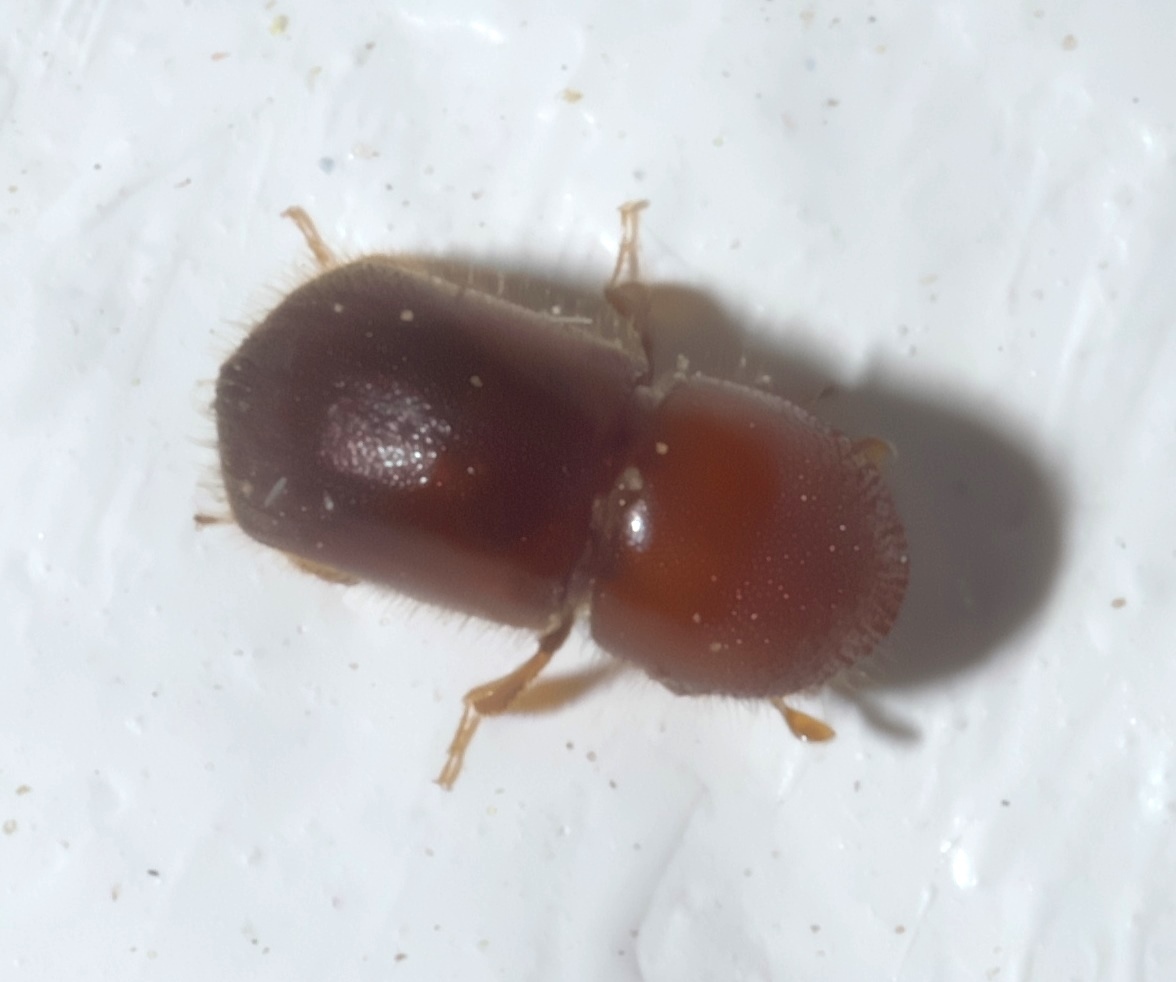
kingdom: Animalia
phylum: Arthropoda
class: Insecta
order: Coleoptera
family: Curculionidae
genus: Xylosandrus
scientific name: Xylosandrus crassiusculus
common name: Granulate ambrosia beetle
